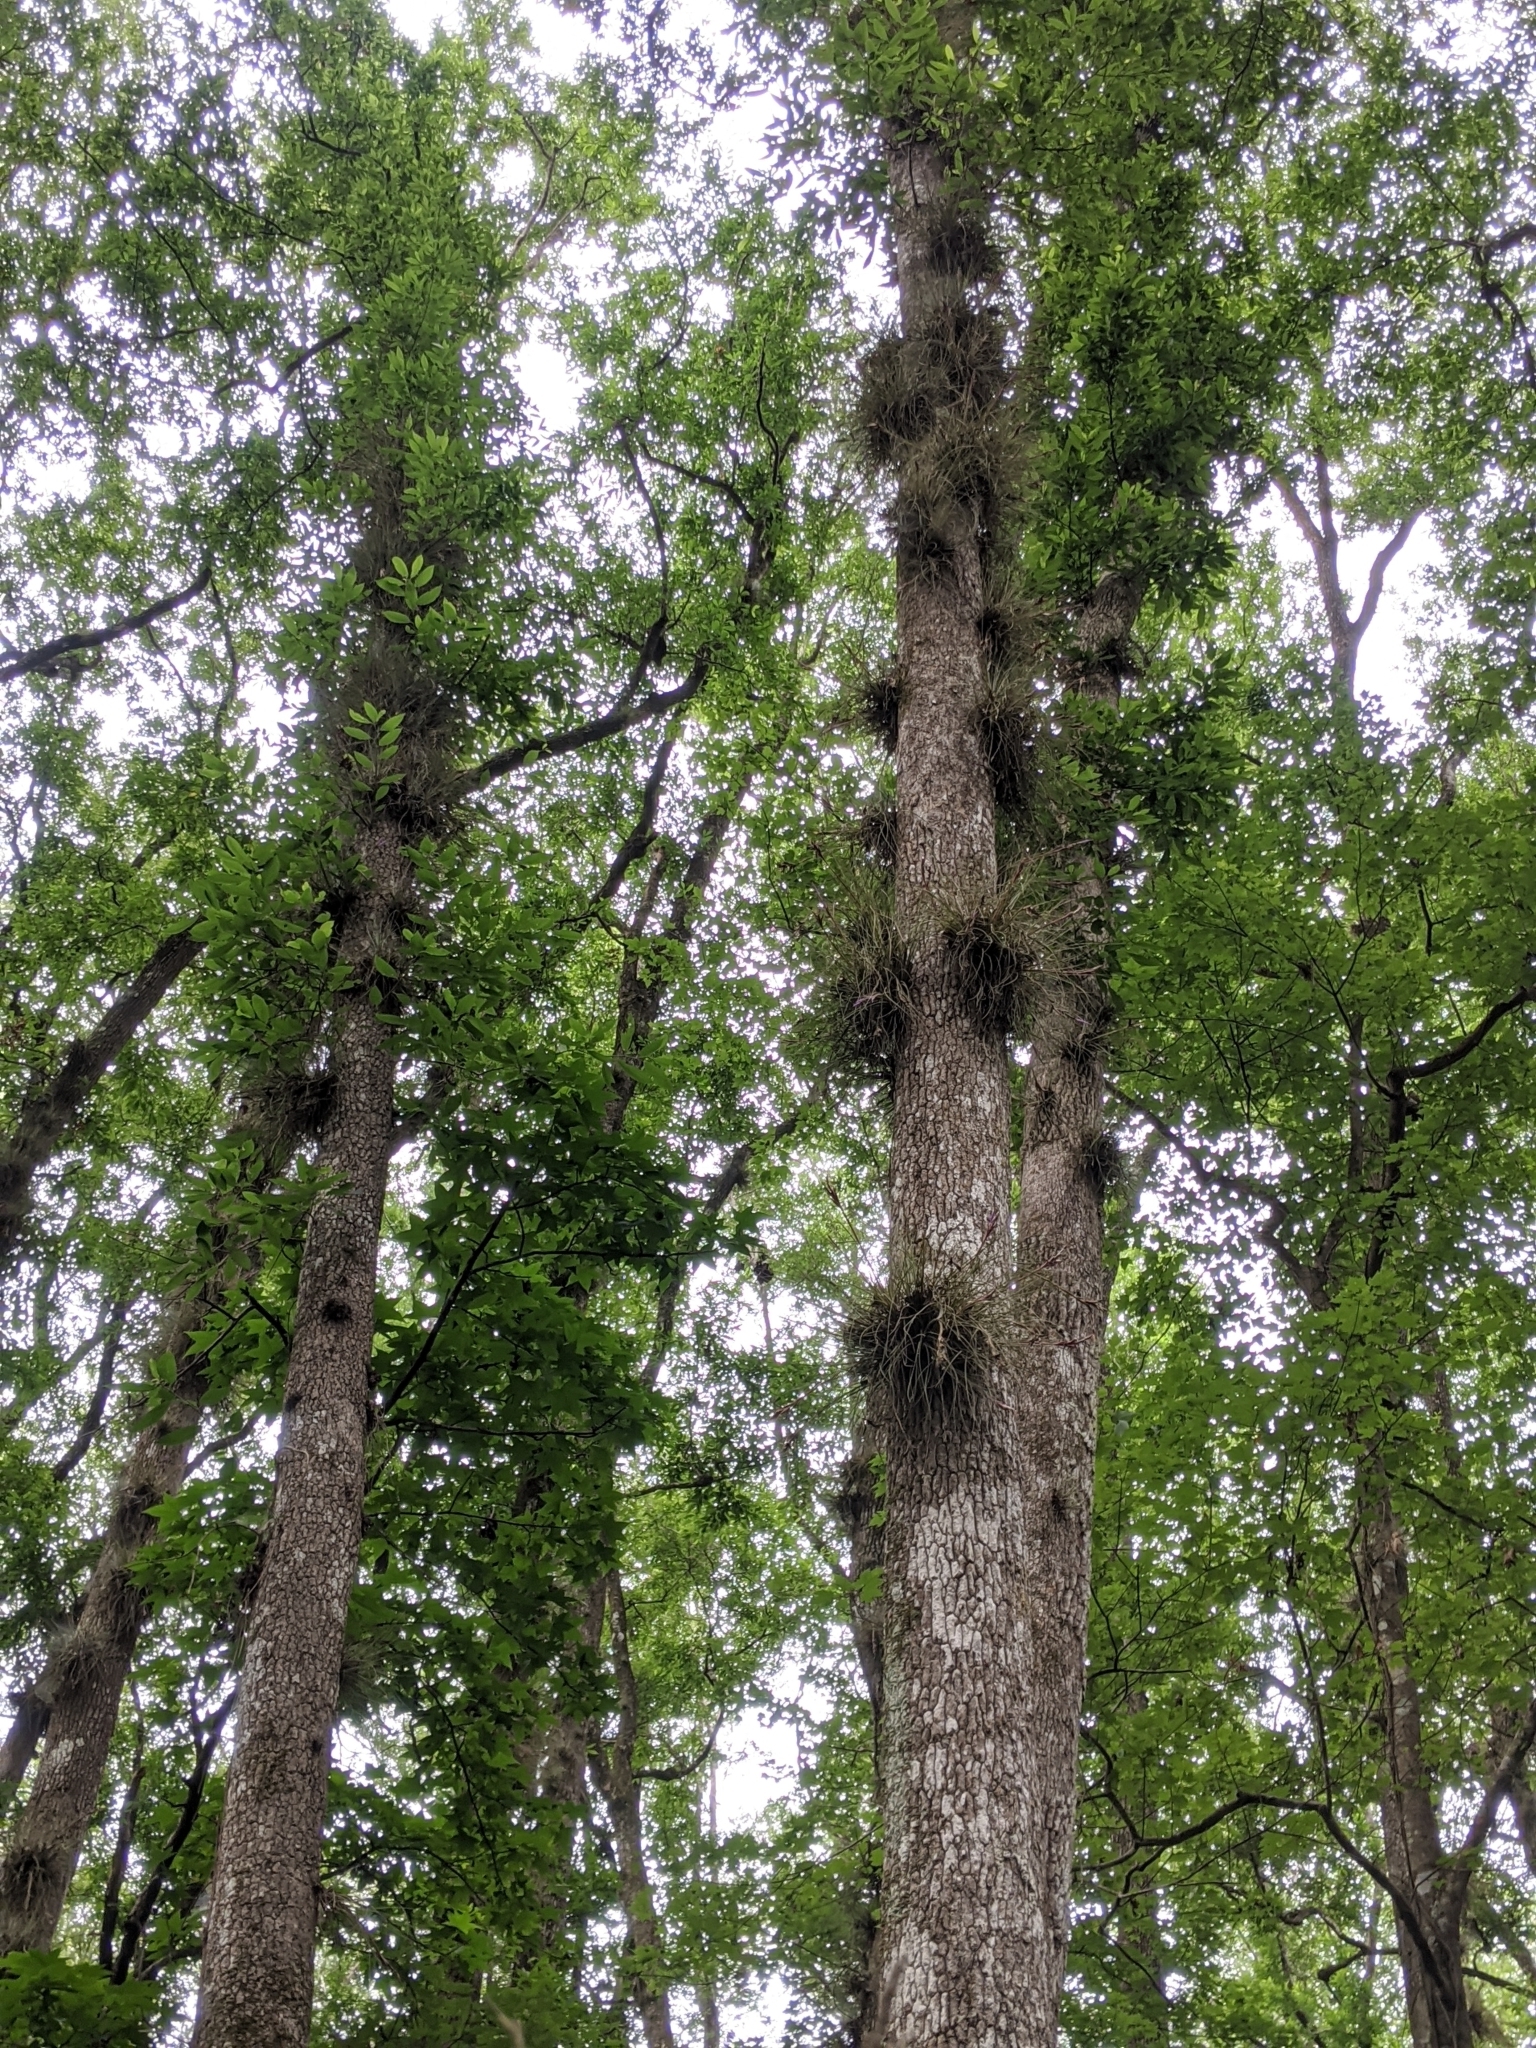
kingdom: Plantae
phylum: Tracheophyta
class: Liliopsida
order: Poales
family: Bromeliaceae
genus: Tillandsia
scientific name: Tillandsia bartramii
